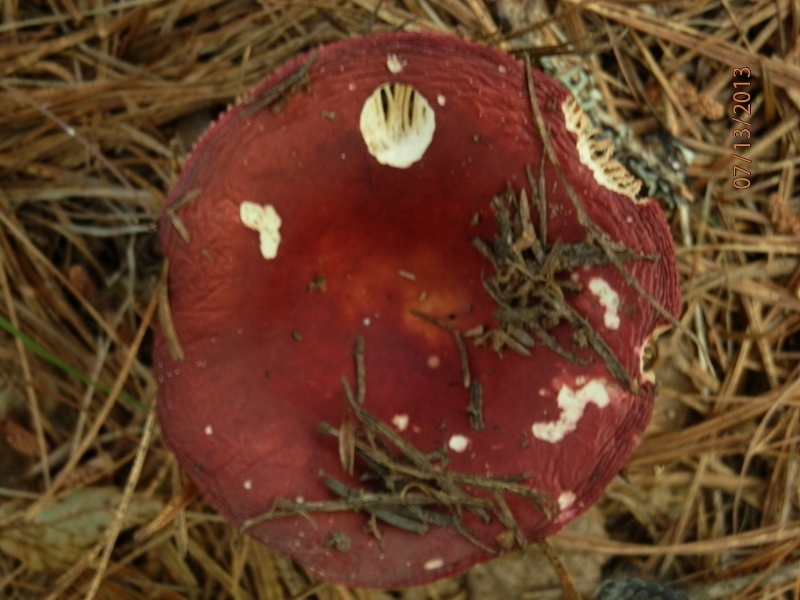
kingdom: Fungi
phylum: Basidiomycota
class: Agaricomycetes
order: Russulales
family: Russulaceae
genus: Russula
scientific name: Russula sanguinaria
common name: Bloody brittlegill
